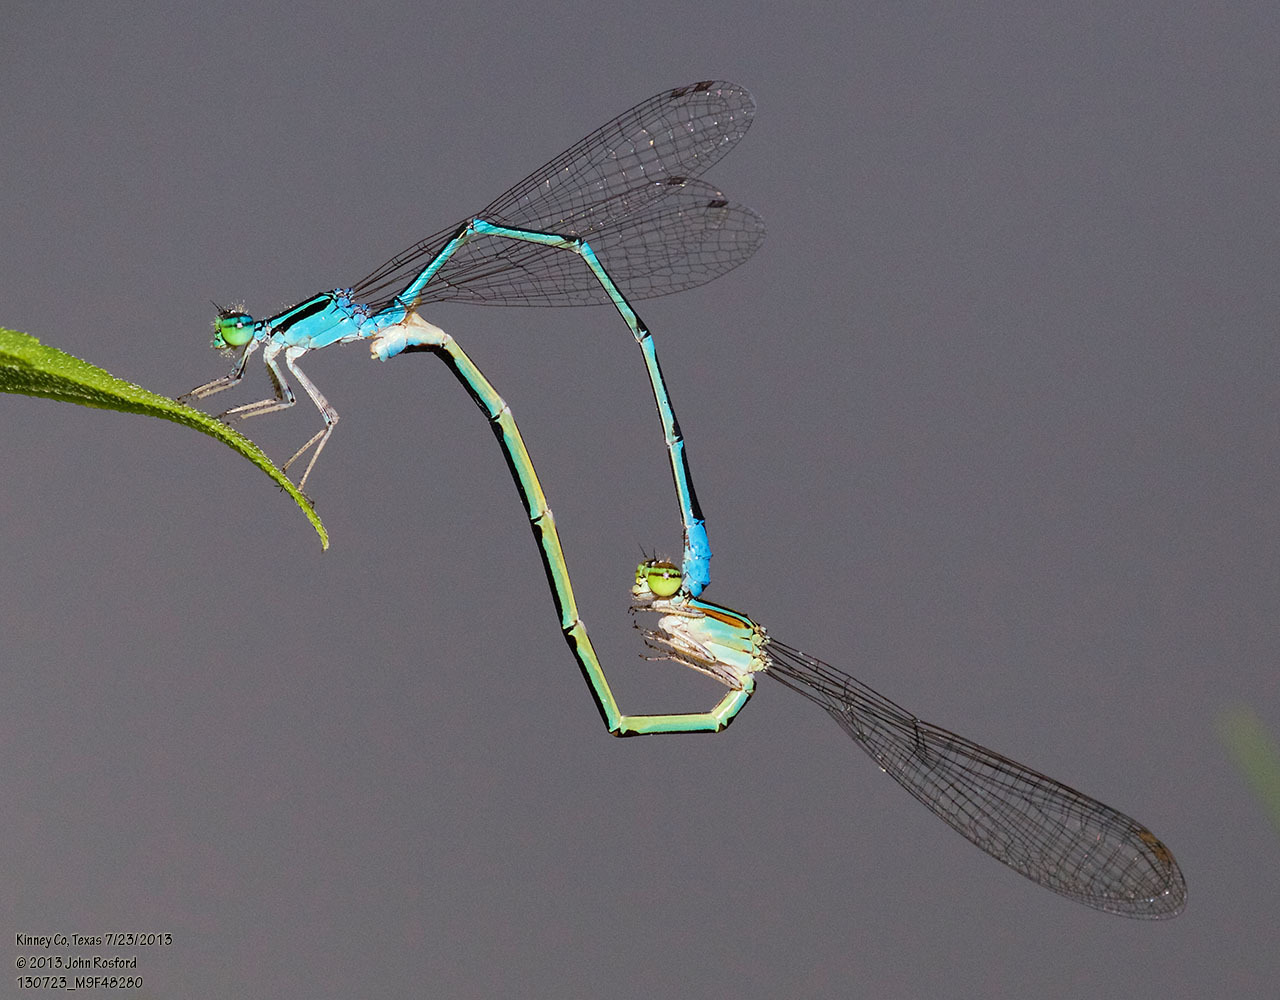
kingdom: Animalia
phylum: Arthropoda
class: Insecta
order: Odonata
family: Coenagrionidae
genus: Enallagma
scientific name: Enallagma exsulans
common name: Stream bluet
